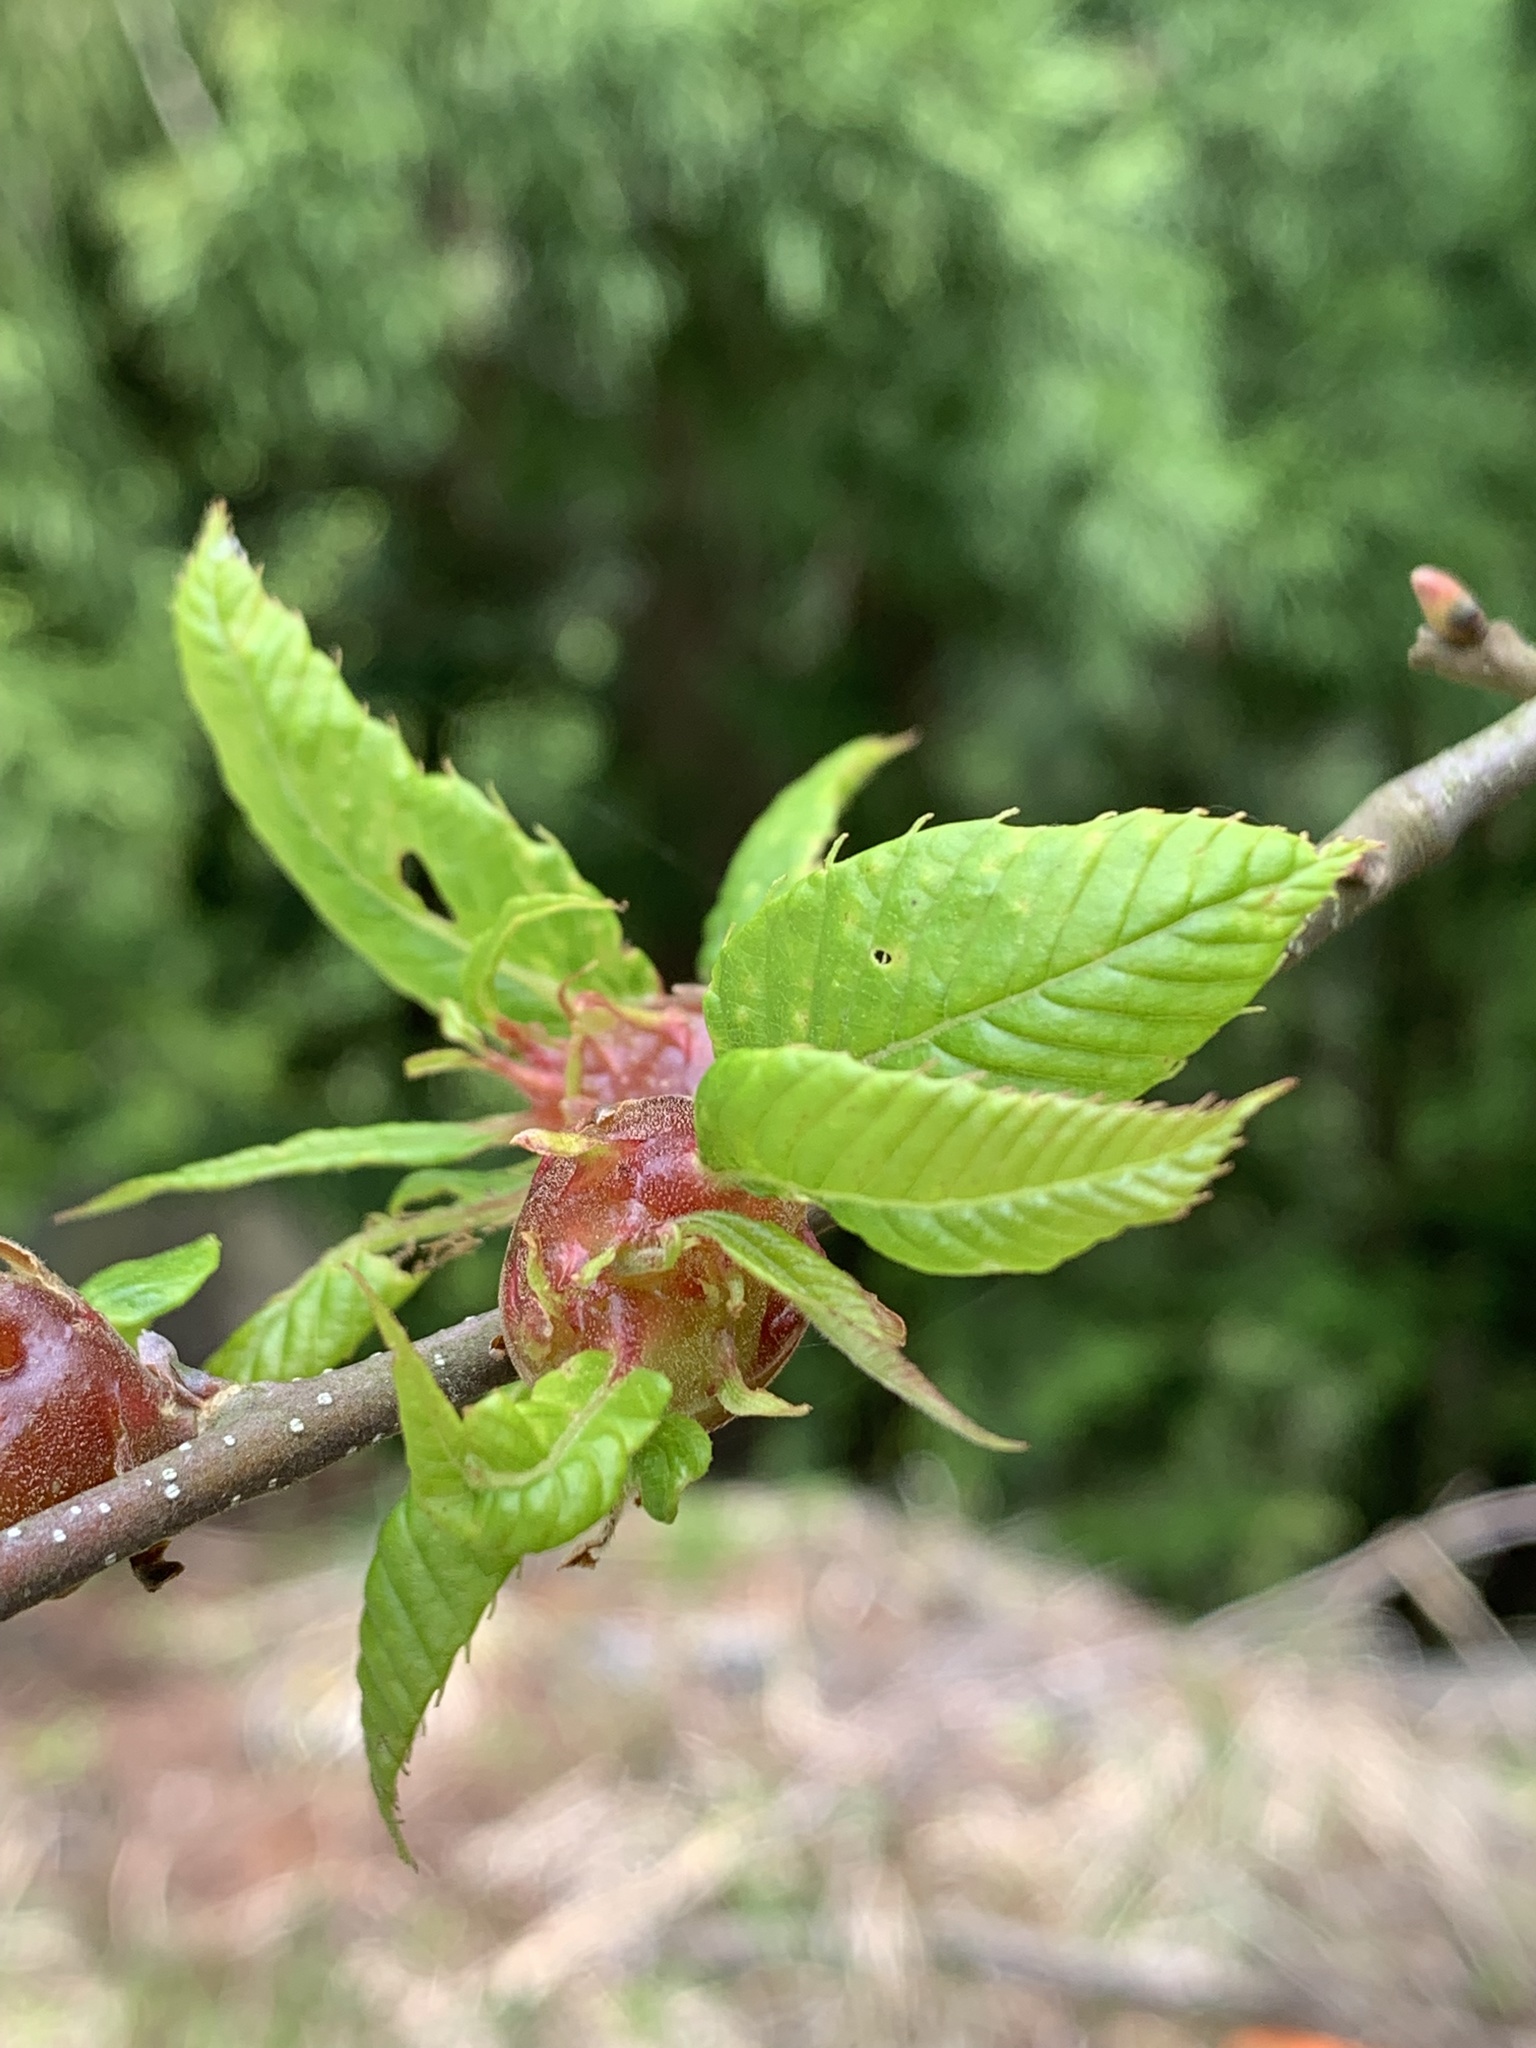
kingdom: Animalia
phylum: Arthropoda
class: Insecta
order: Hymenoptera
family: Cynipidae
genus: Dryocosmus
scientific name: Dryocosmus kuriphilus
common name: Asian chestnut gall wasp
